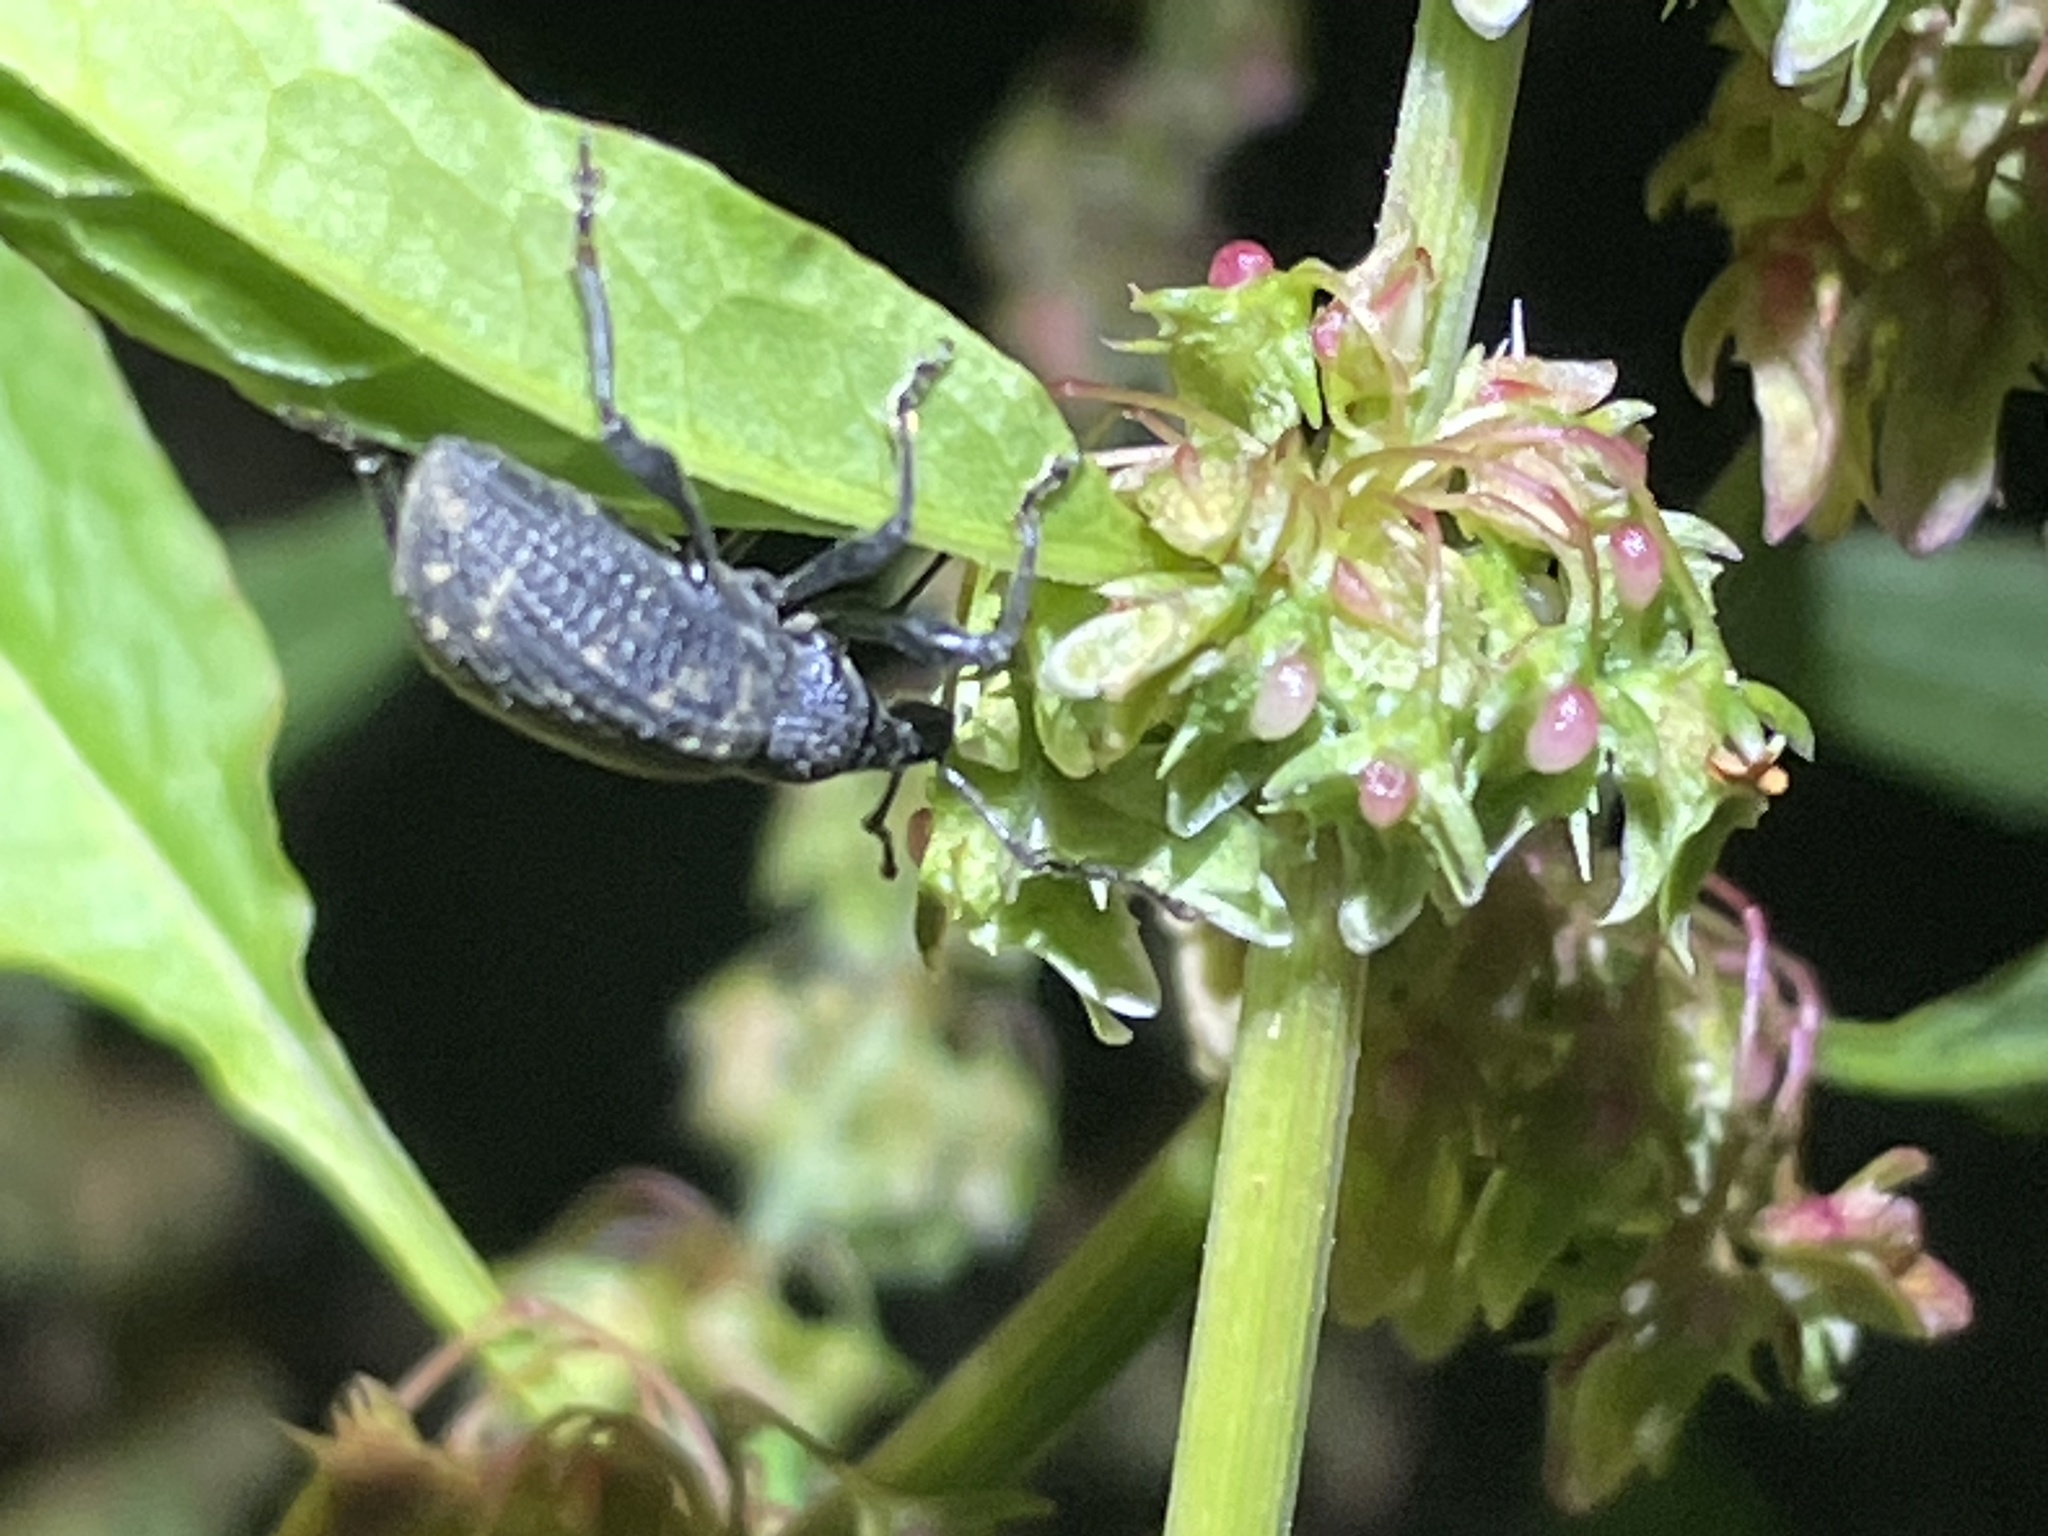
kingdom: Animalia
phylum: Arthropoda
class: Insecta
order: Coleoptera
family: Curculionidae
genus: Otiorhynchus
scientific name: Otiorhynchus sulcatus
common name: Black vine weevil
